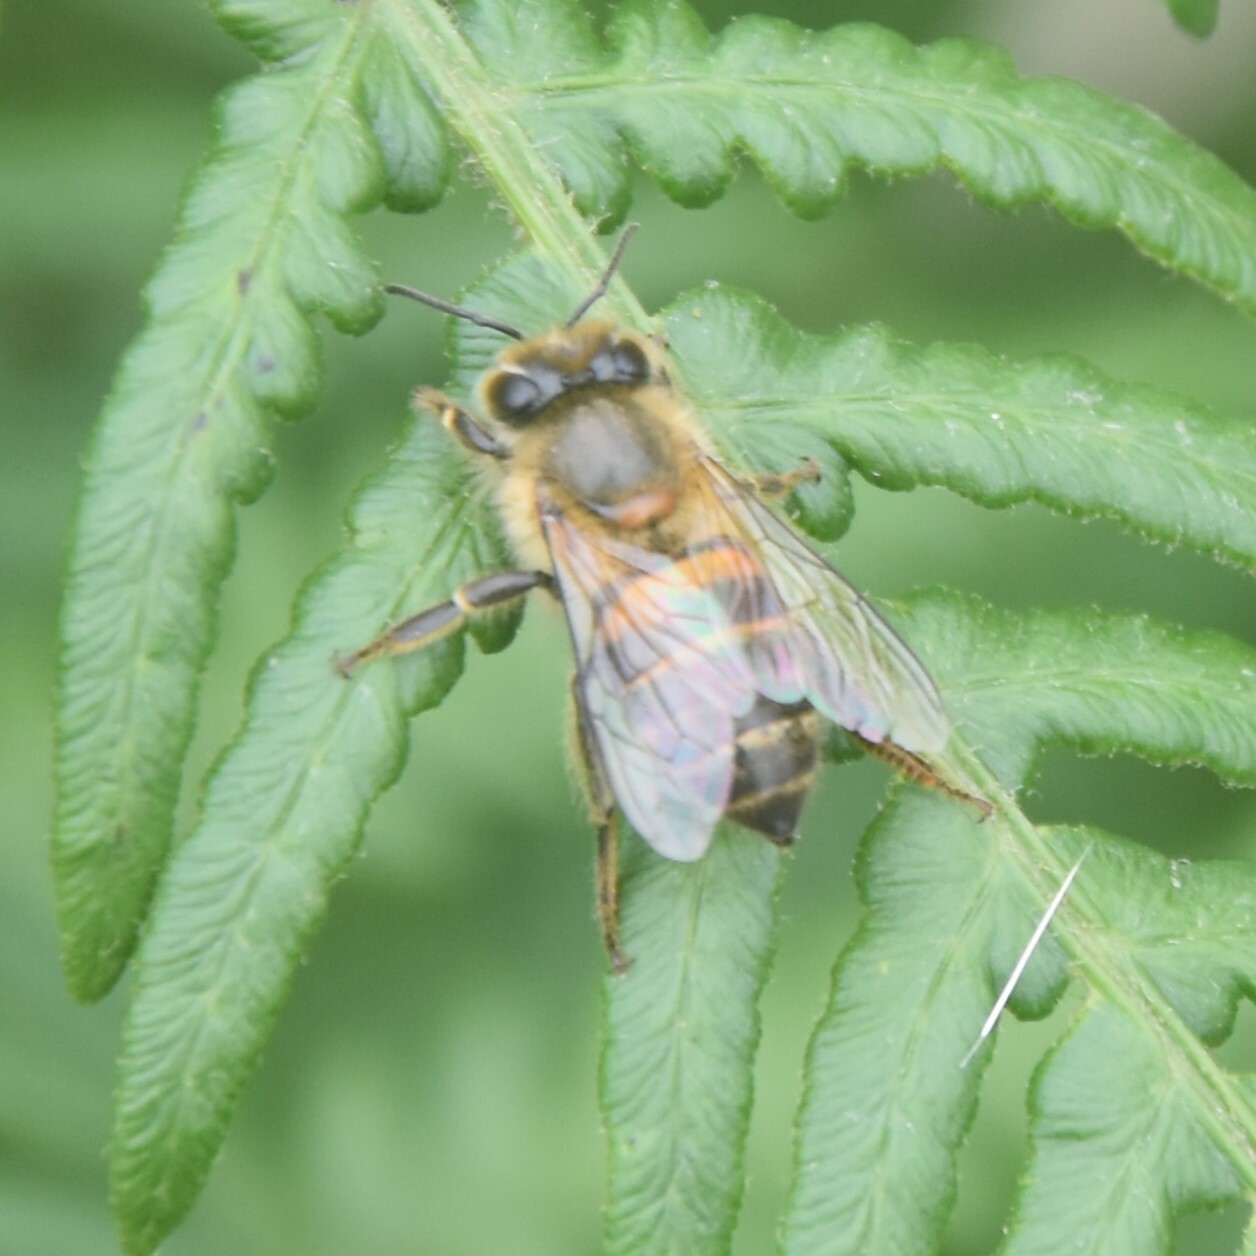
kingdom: Animalia
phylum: Arthropoda
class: Insecta
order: Hymenoptera
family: Apidae
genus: Apis
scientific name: Apis cerana
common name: Honey bee
